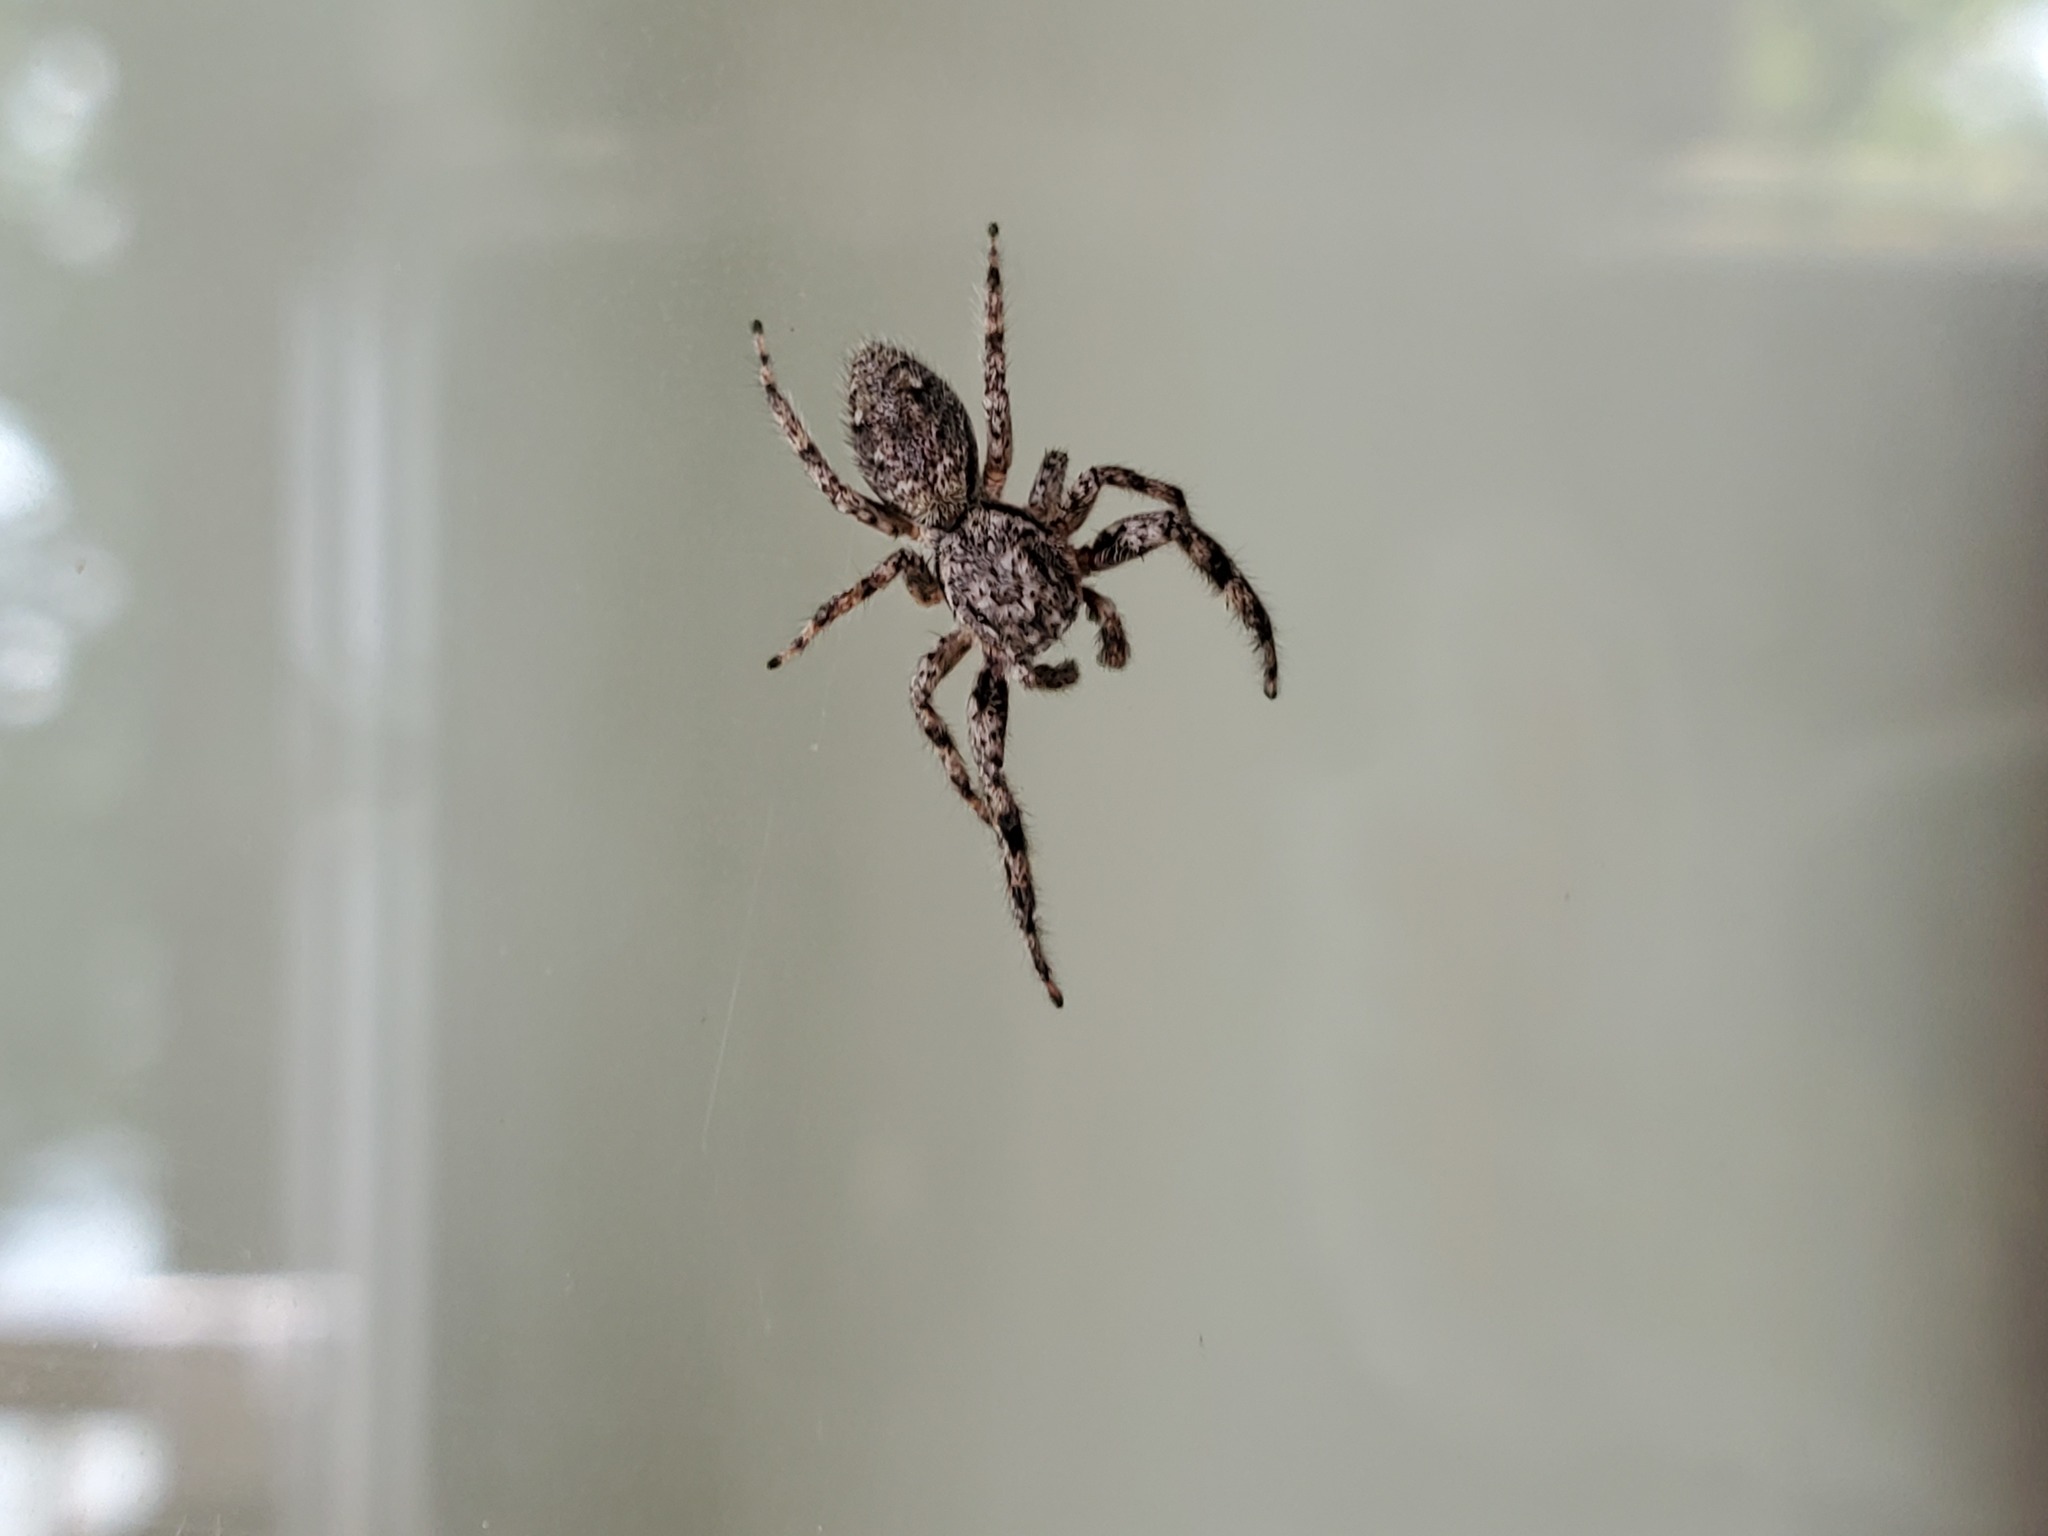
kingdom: Animalia
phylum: Arthropoda
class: Arachnida
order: Araneae
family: Salticidae
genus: Platycryptus
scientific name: Platycryptus undatus
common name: Tan jumping spider
